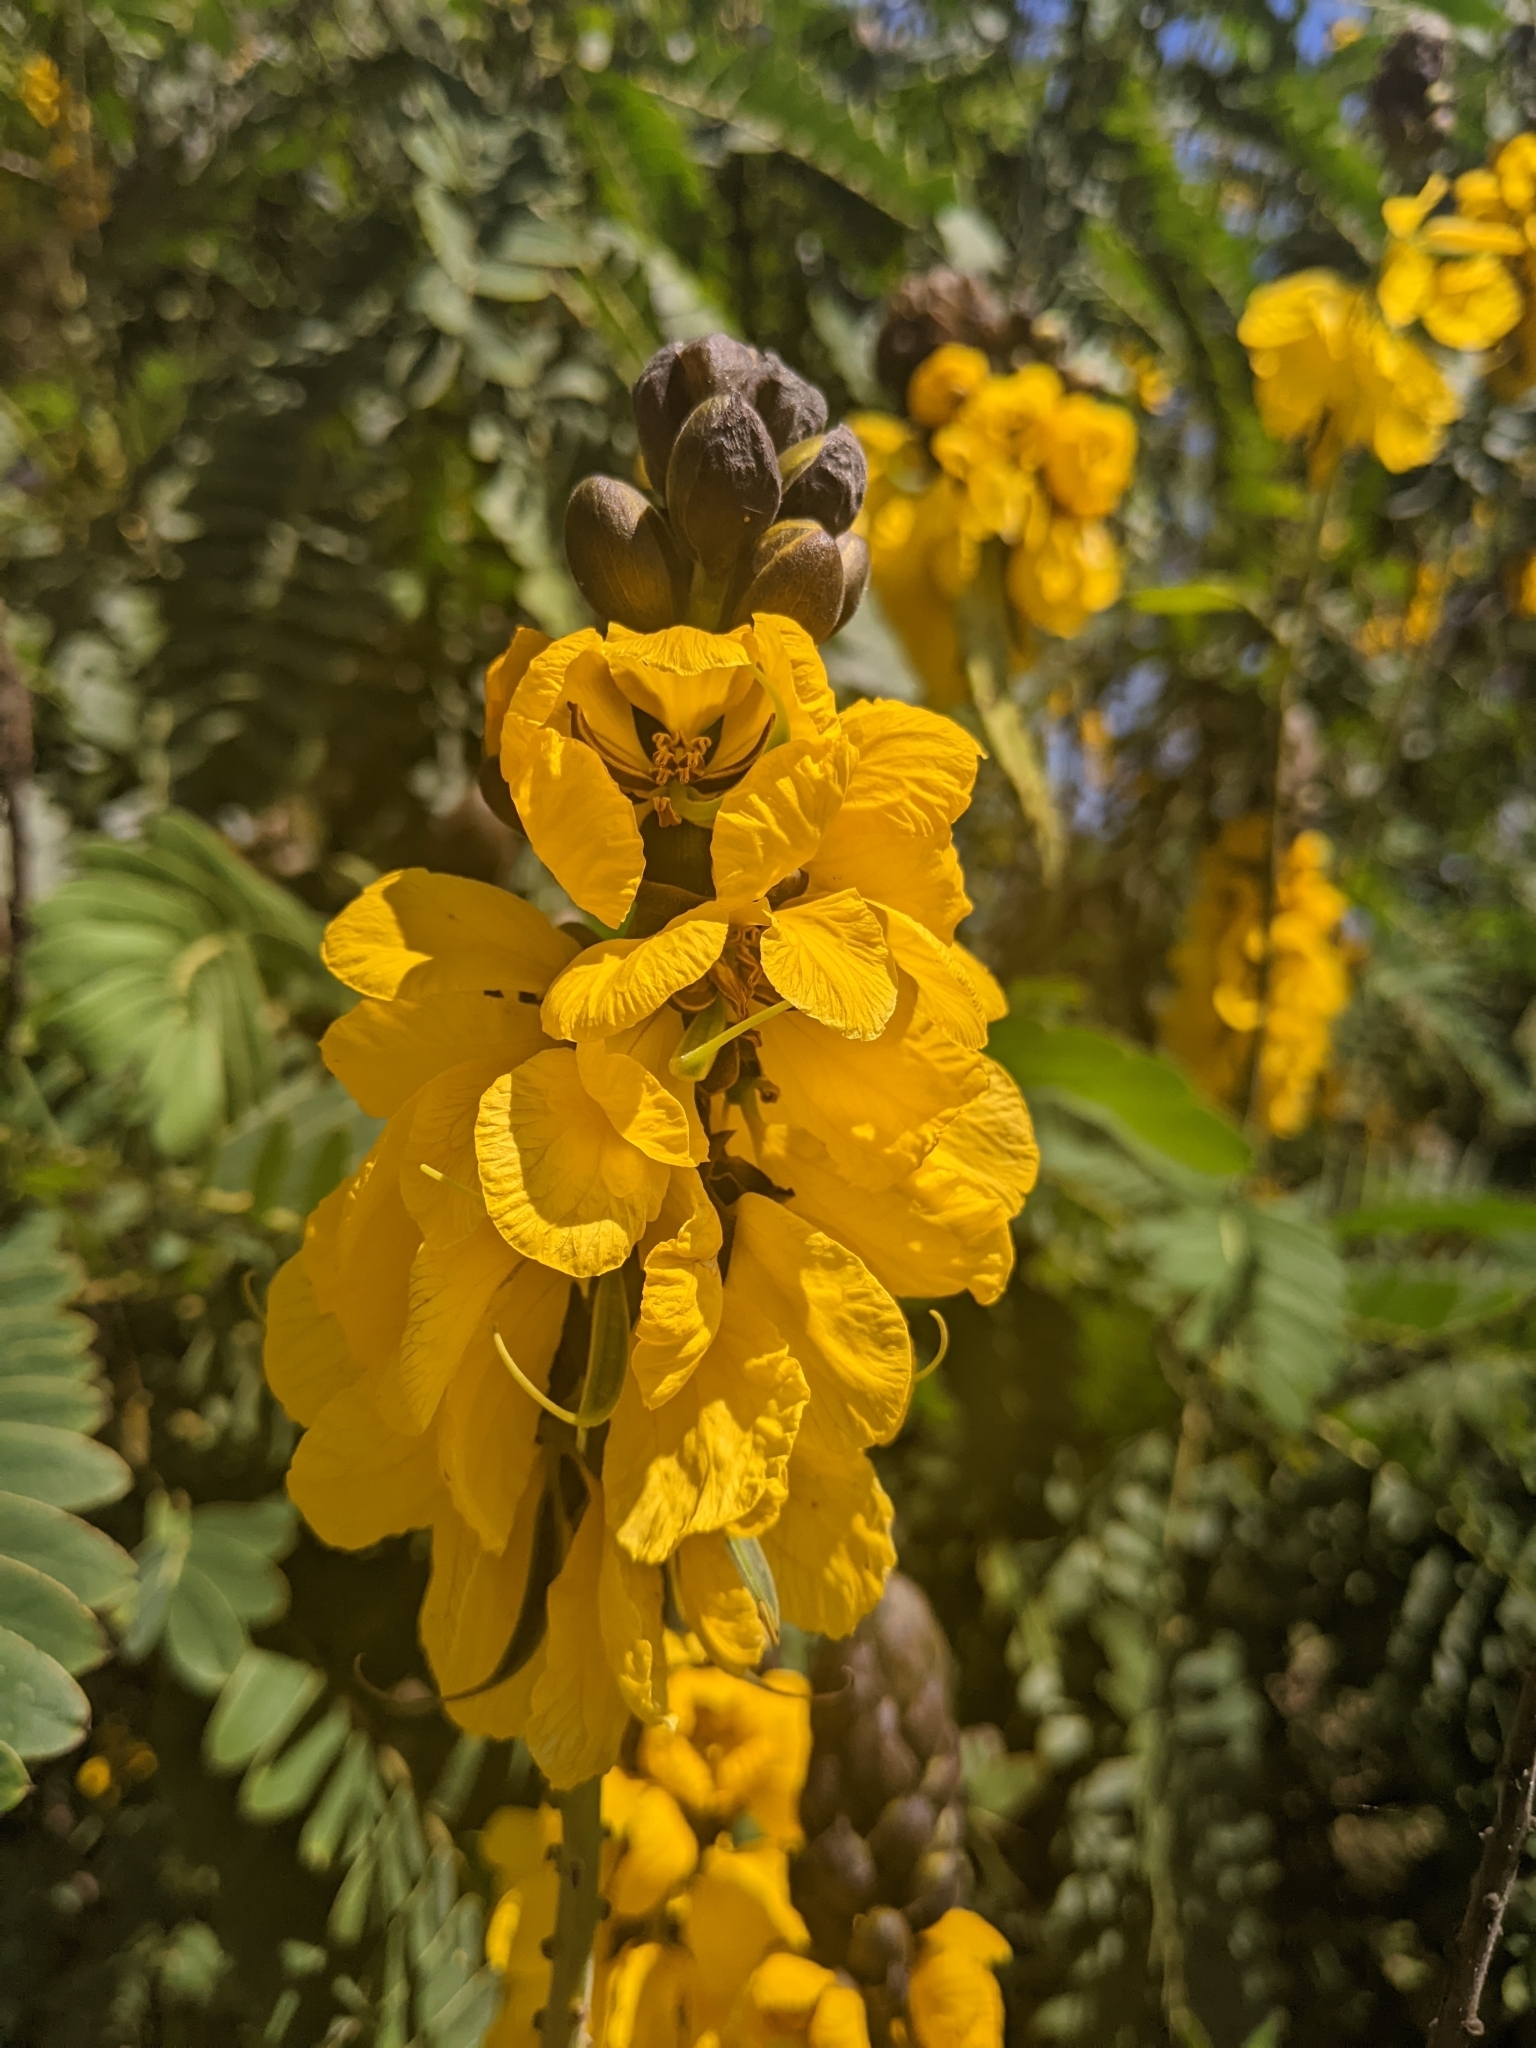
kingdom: Plantae
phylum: Tracheophyta
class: Magnoliopsida
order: Fabales
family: Fabaceae
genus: Senna
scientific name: Senna didymobotrya
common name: African senna
